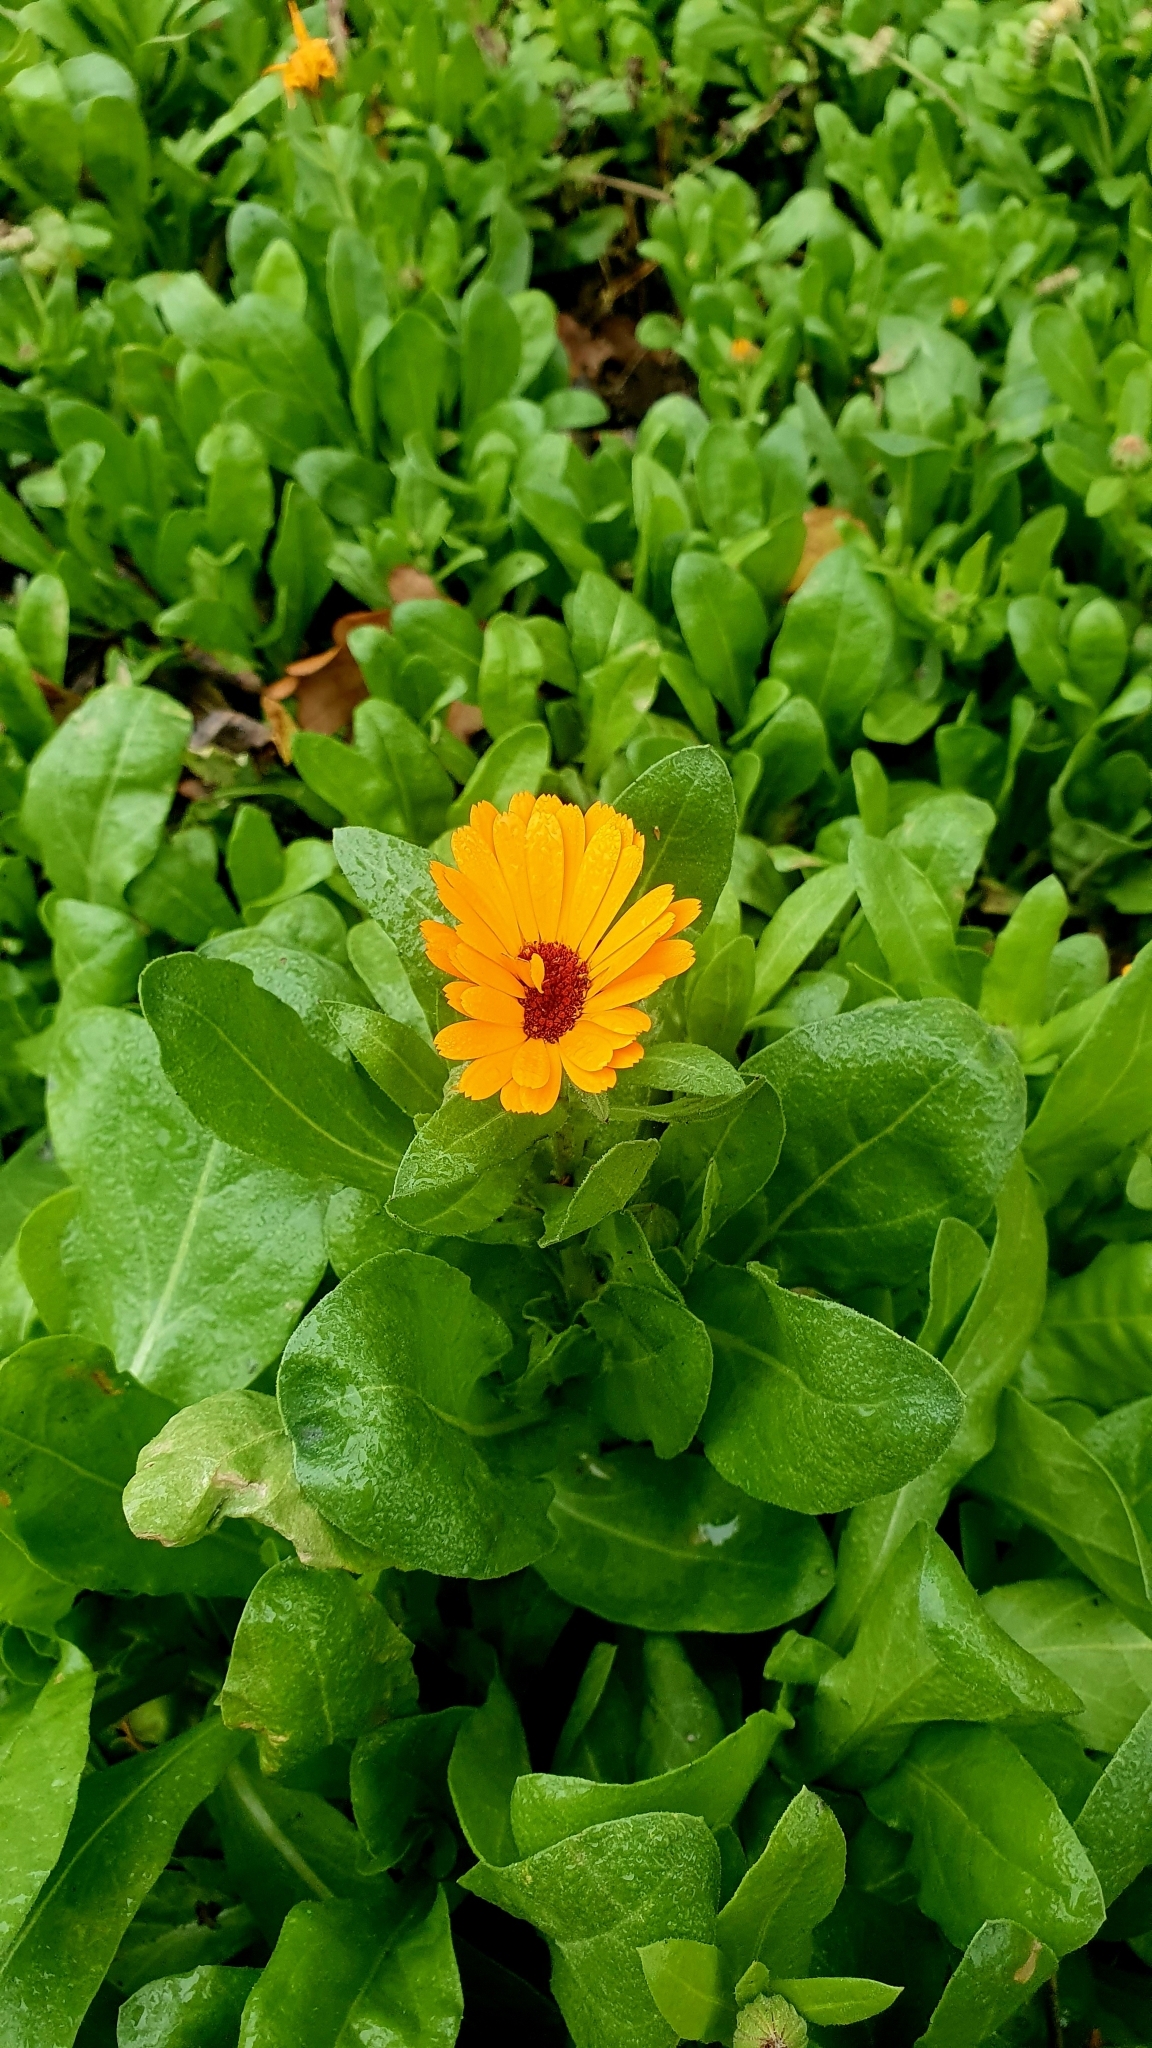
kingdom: Plantae
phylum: Tracheophyta
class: Magnoliopsida
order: Asterales
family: Asteraceae
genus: Calendula
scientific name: Calendula officinalis
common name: Pot marigold
